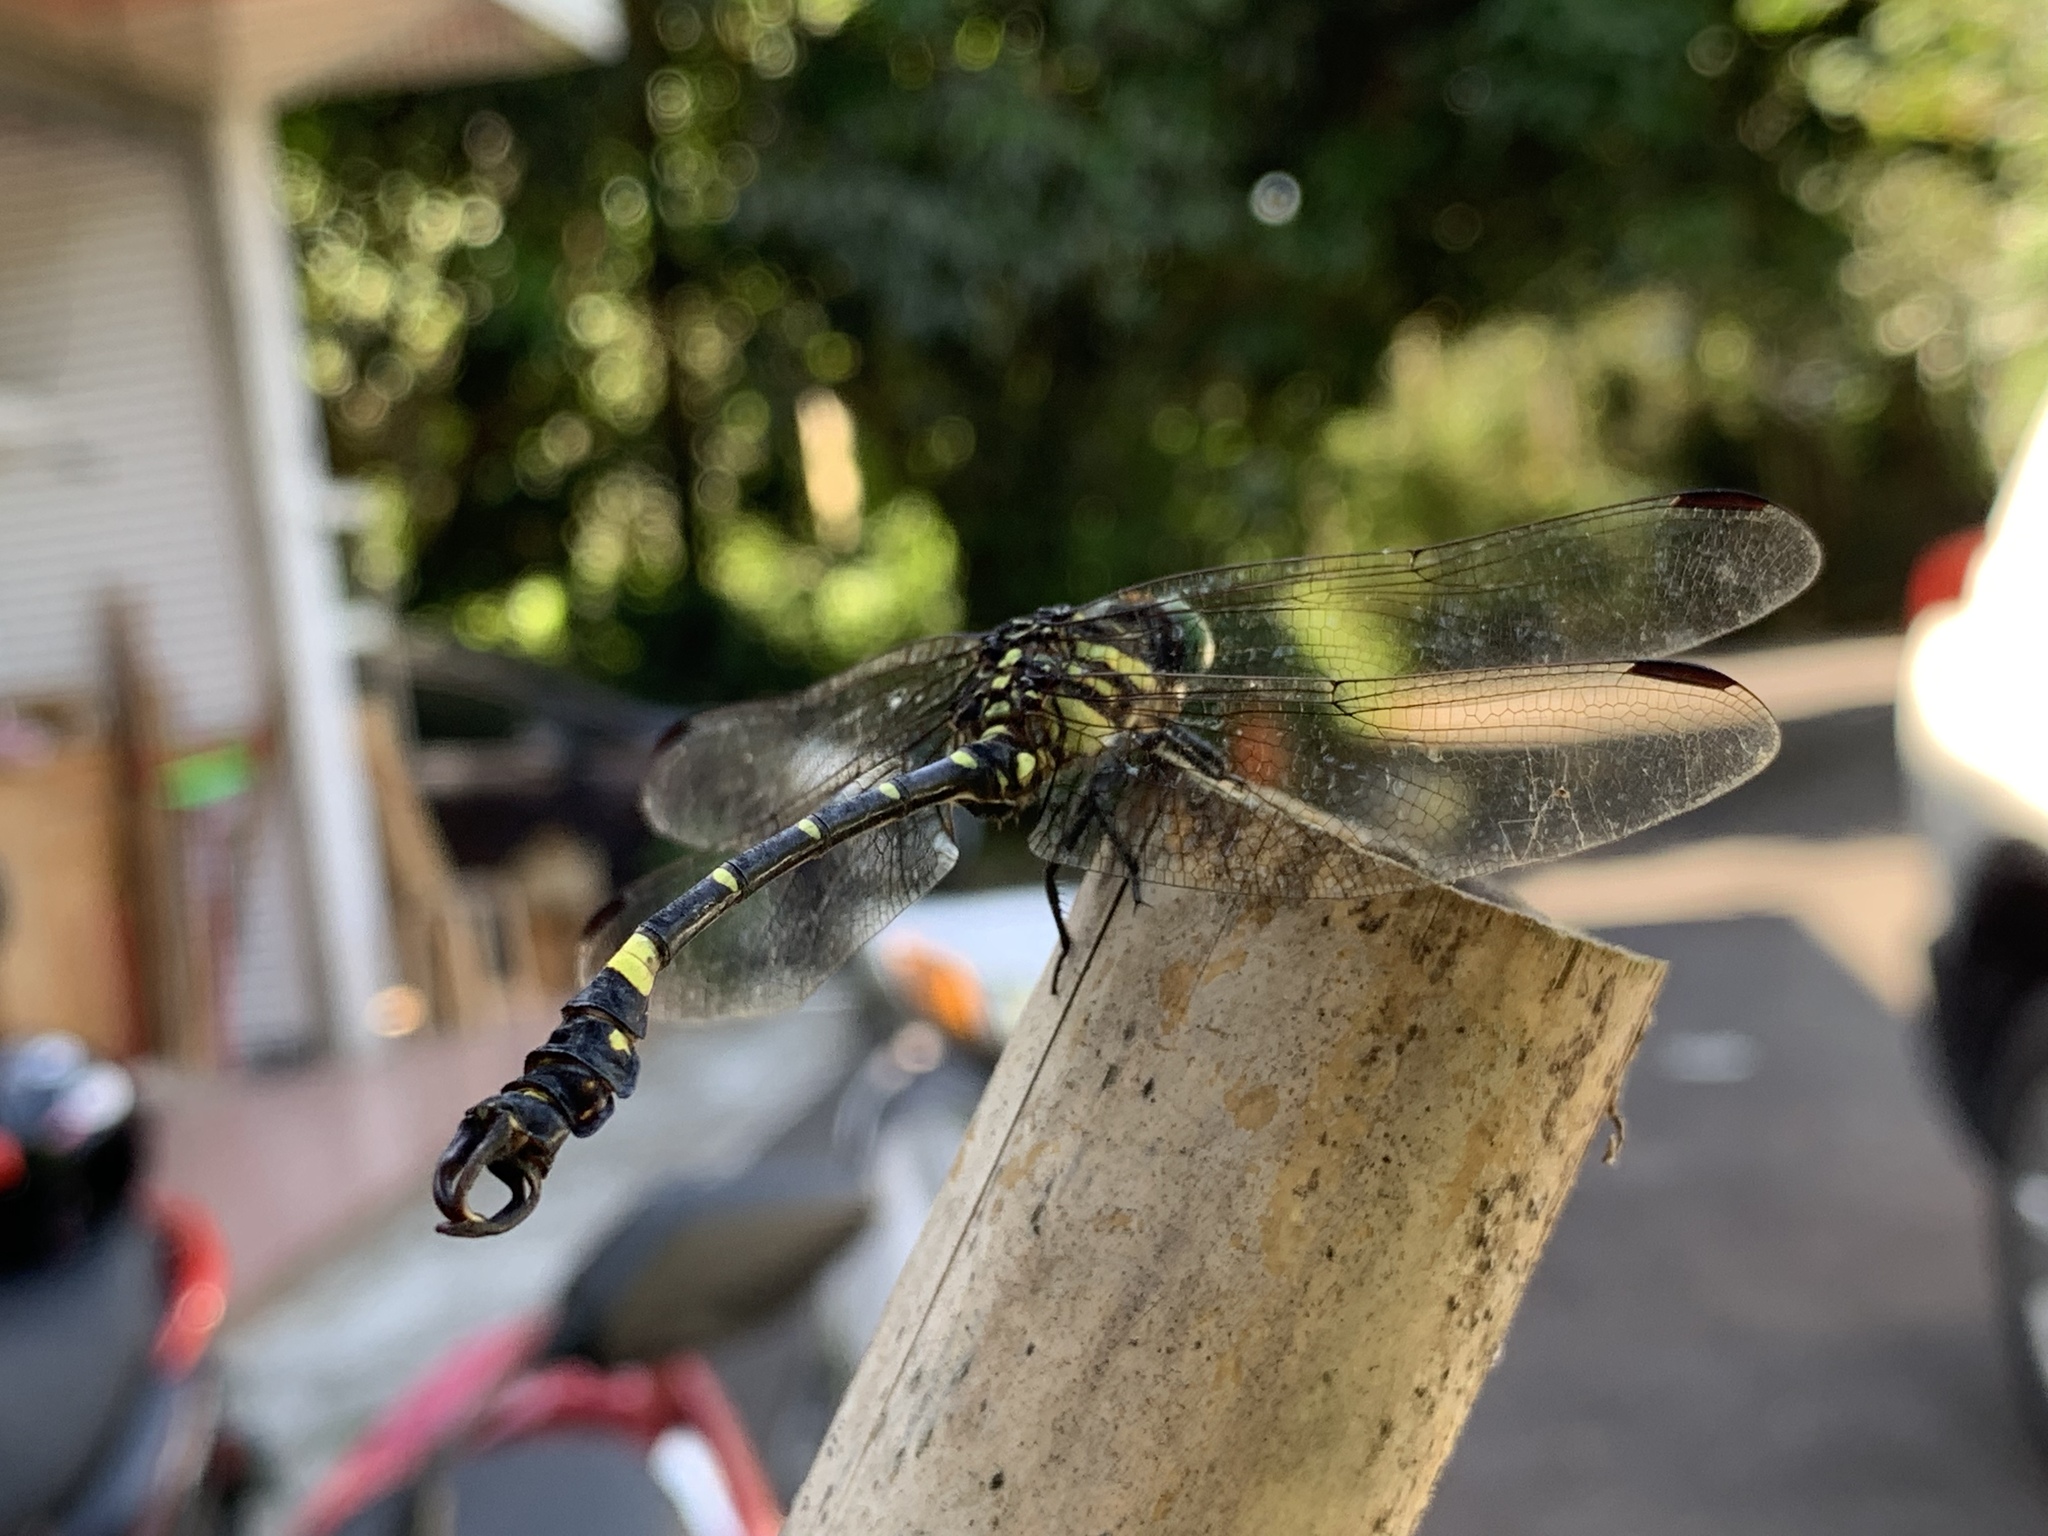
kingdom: Animalia
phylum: Arthropoda
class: Insecta
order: Odonata
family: Gomphidae
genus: Lamelligomphus
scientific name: Lamelligomphus formosanus
